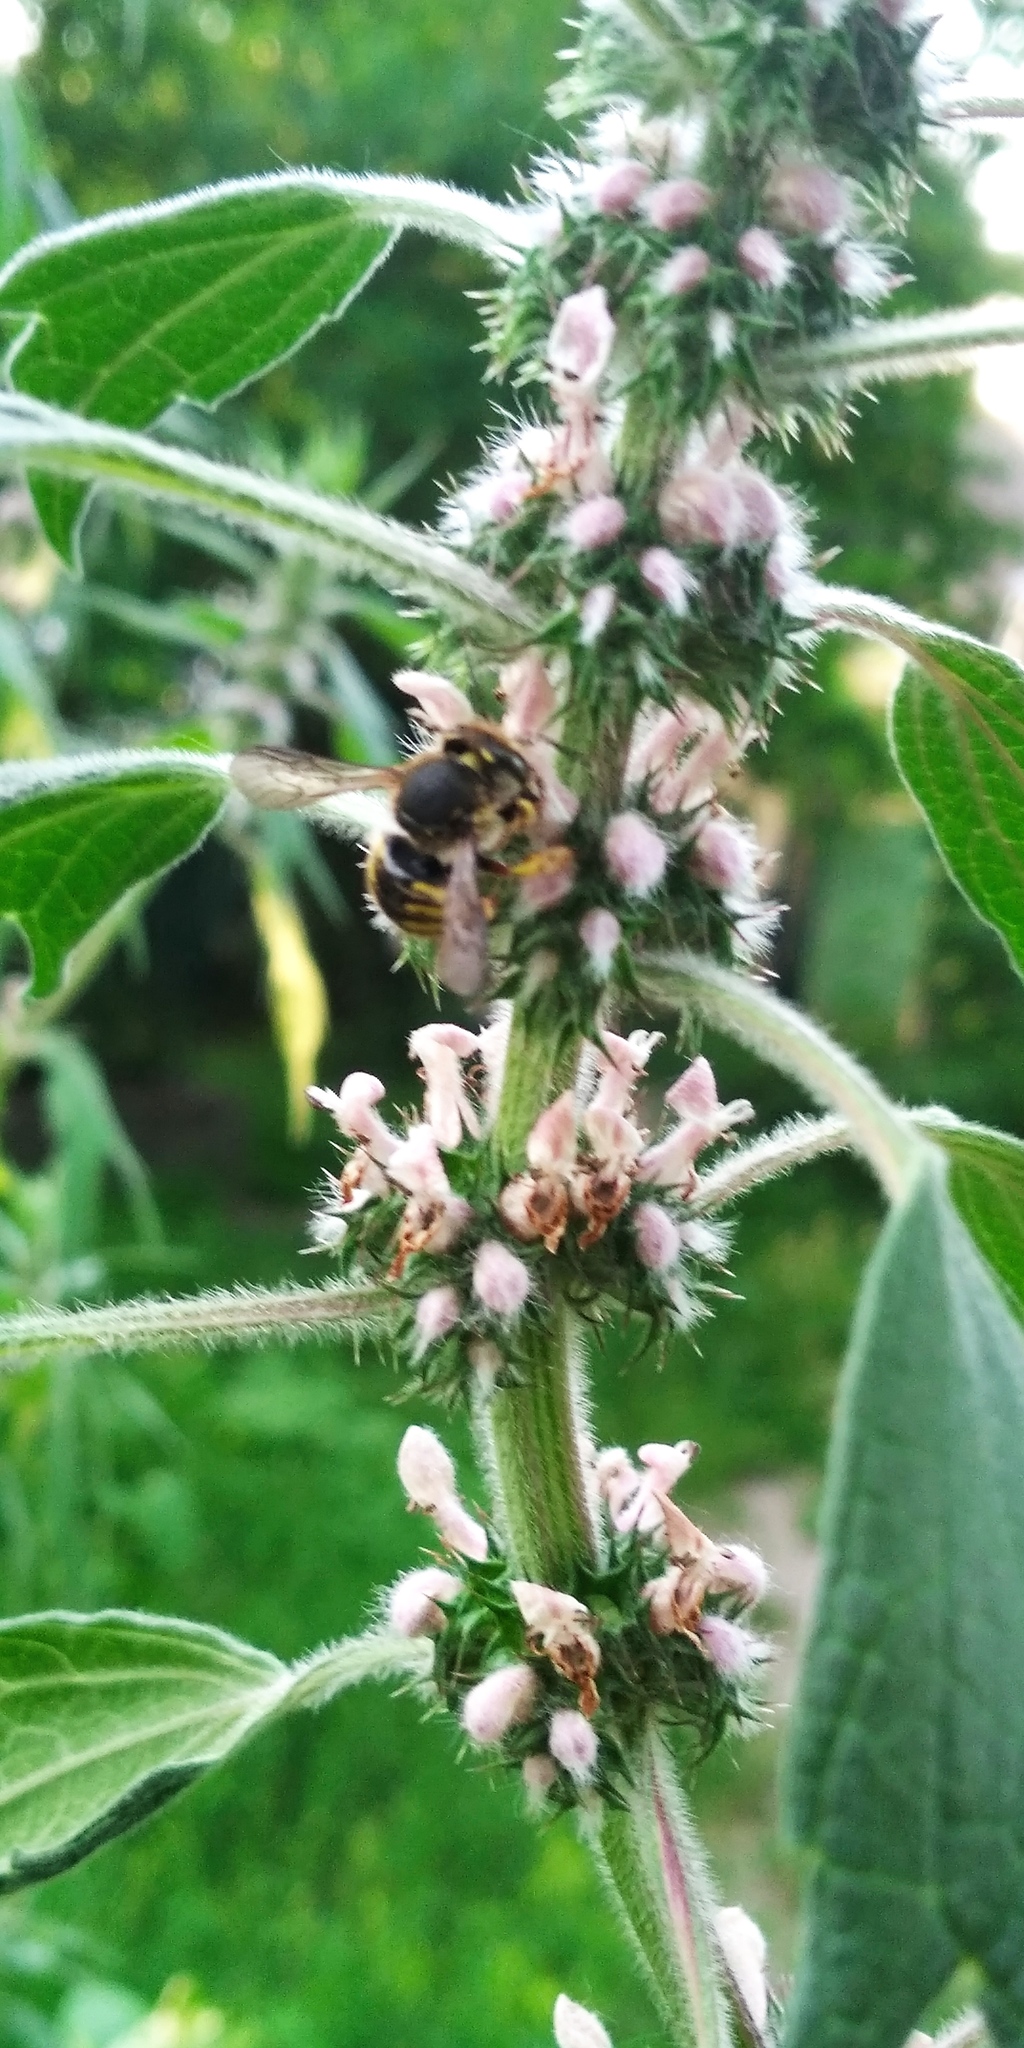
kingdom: Animalia
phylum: Arthropoda
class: Insecta
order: Hymenoptera
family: Megachilidae
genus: Anthidium
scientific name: Anthidium manicatum
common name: Wool carder bee
